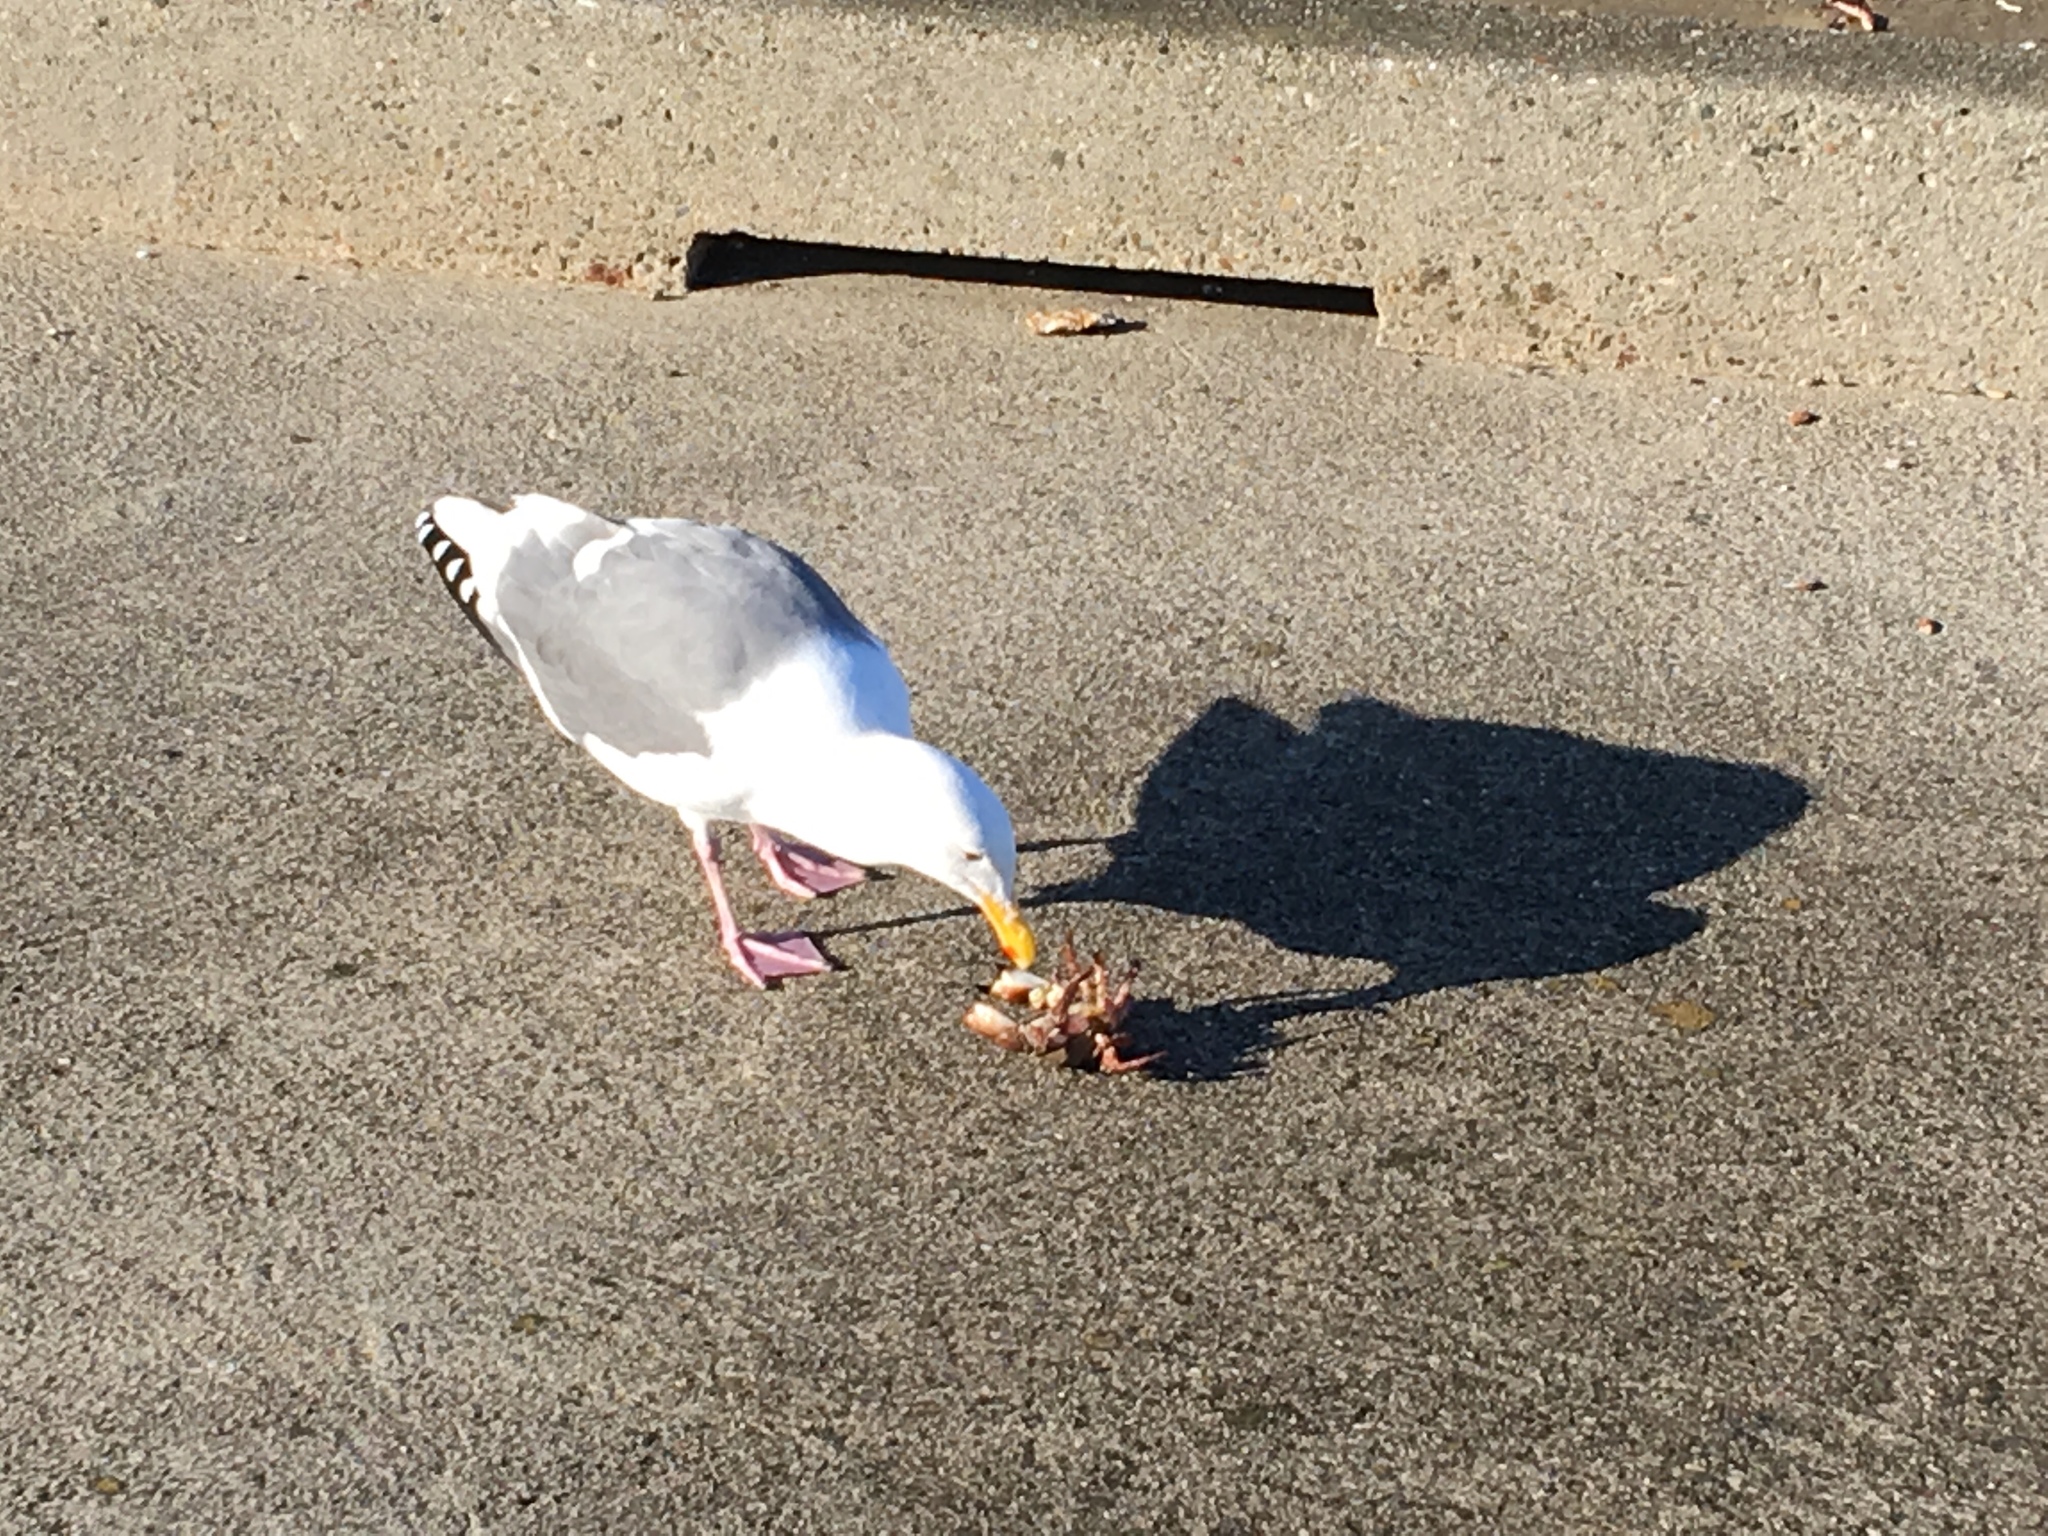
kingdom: Animalia
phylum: Chordata
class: Aves
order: Charadriiformes
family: Laridae
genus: Larus
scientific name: Larus occidentalis
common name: Western gull
